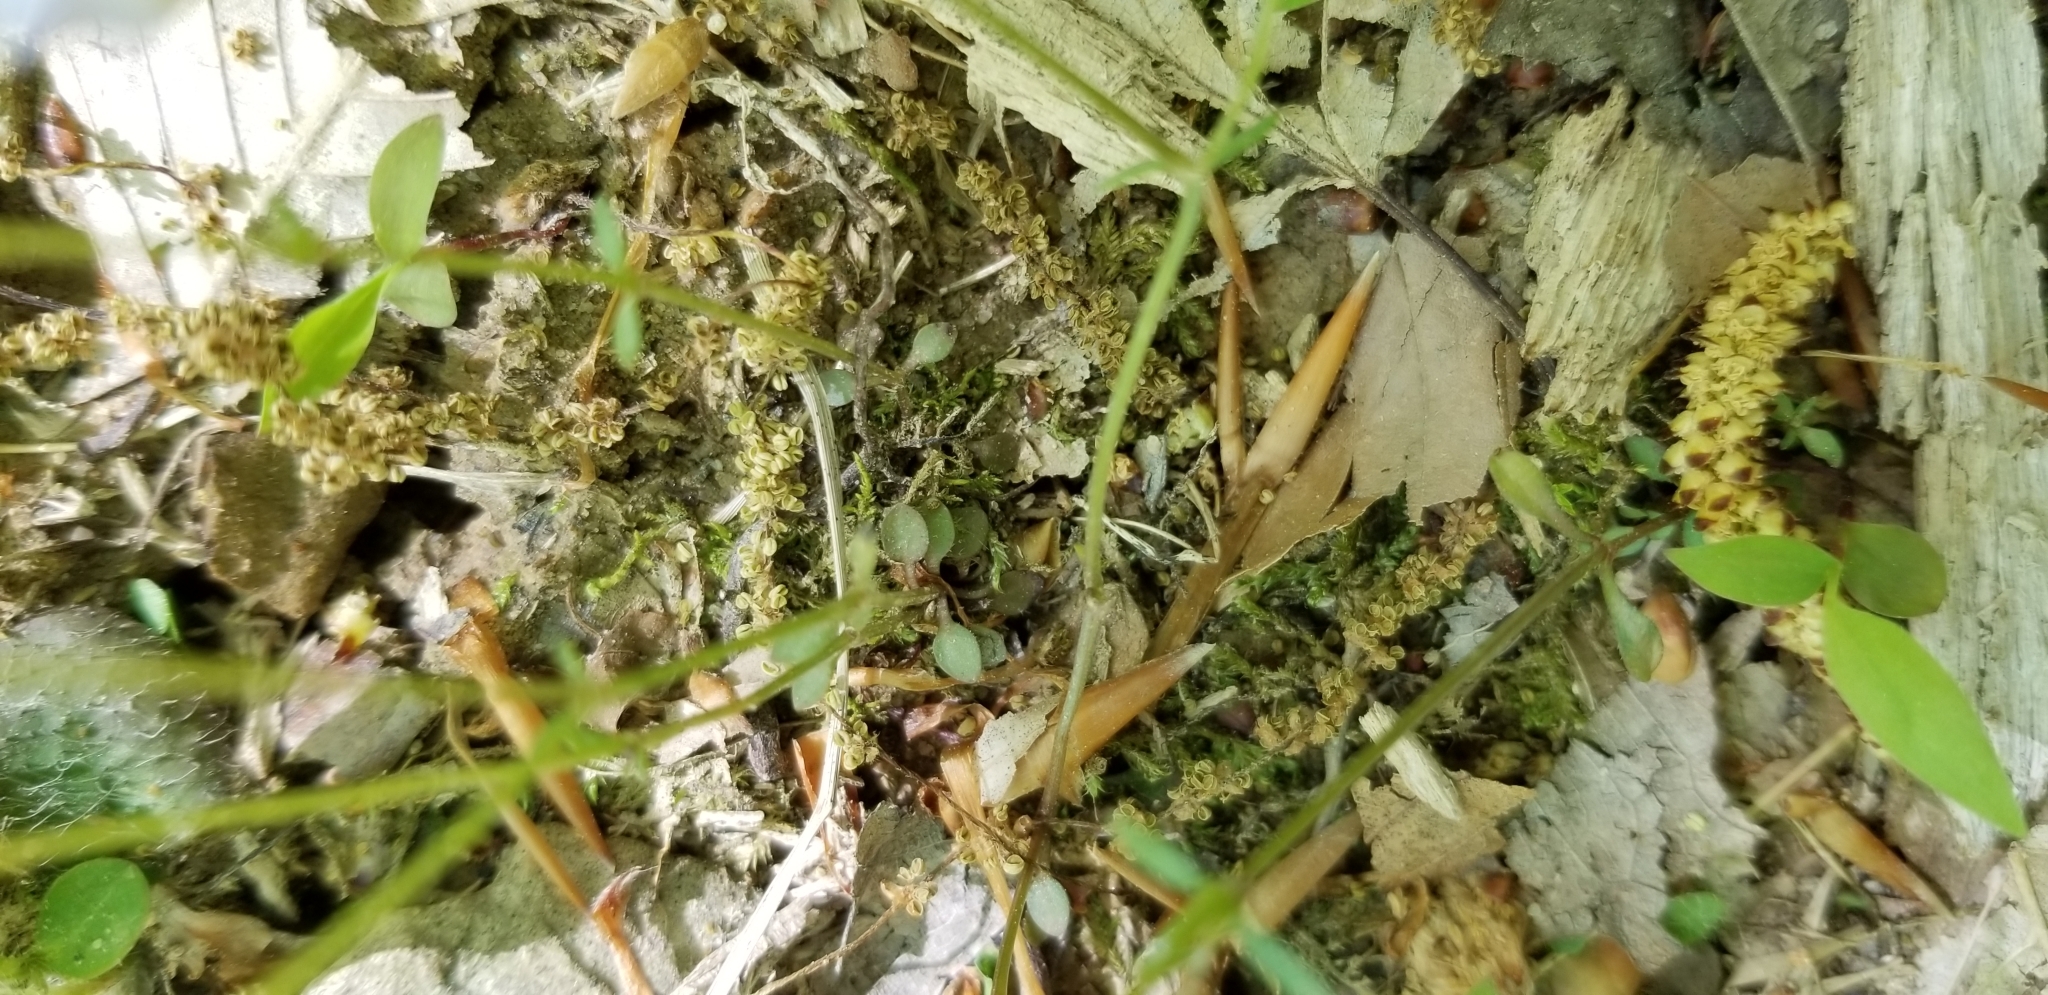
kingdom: Plantae
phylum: Tracheophyta
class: Magnoliopsida
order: Gentianales
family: Rubiaceae
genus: Houstonia
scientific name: Houstonia caerulea
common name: Bluets
